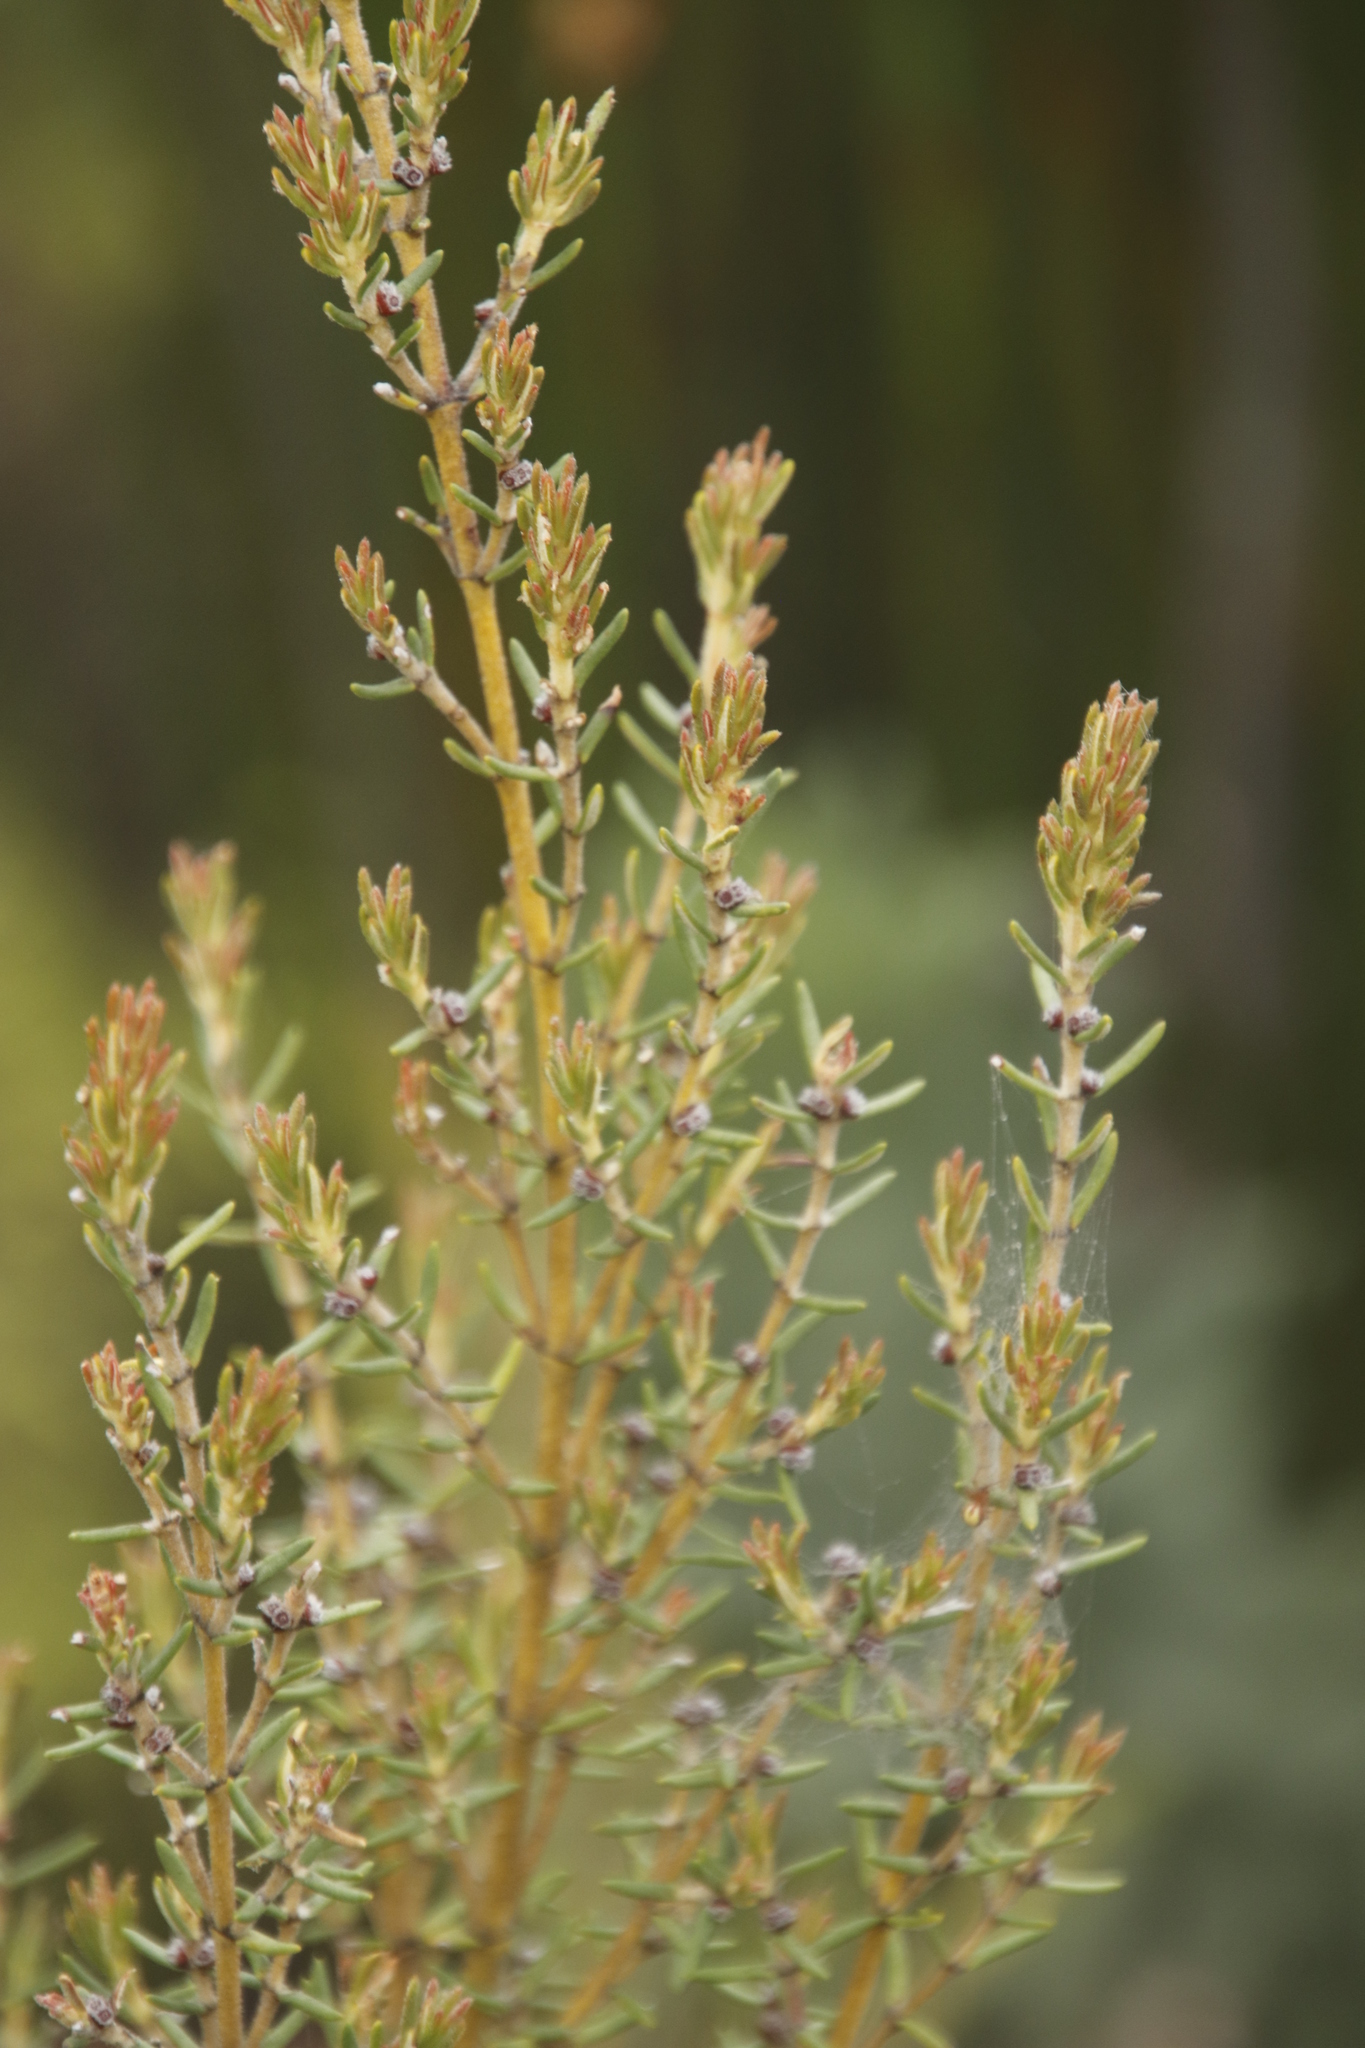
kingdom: Plantae
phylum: Tracheophyta
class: Magnoliopsida
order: Cornales
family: Grubbiaceae
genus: Grubbia
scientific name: Grubbia rosmarinifolia
